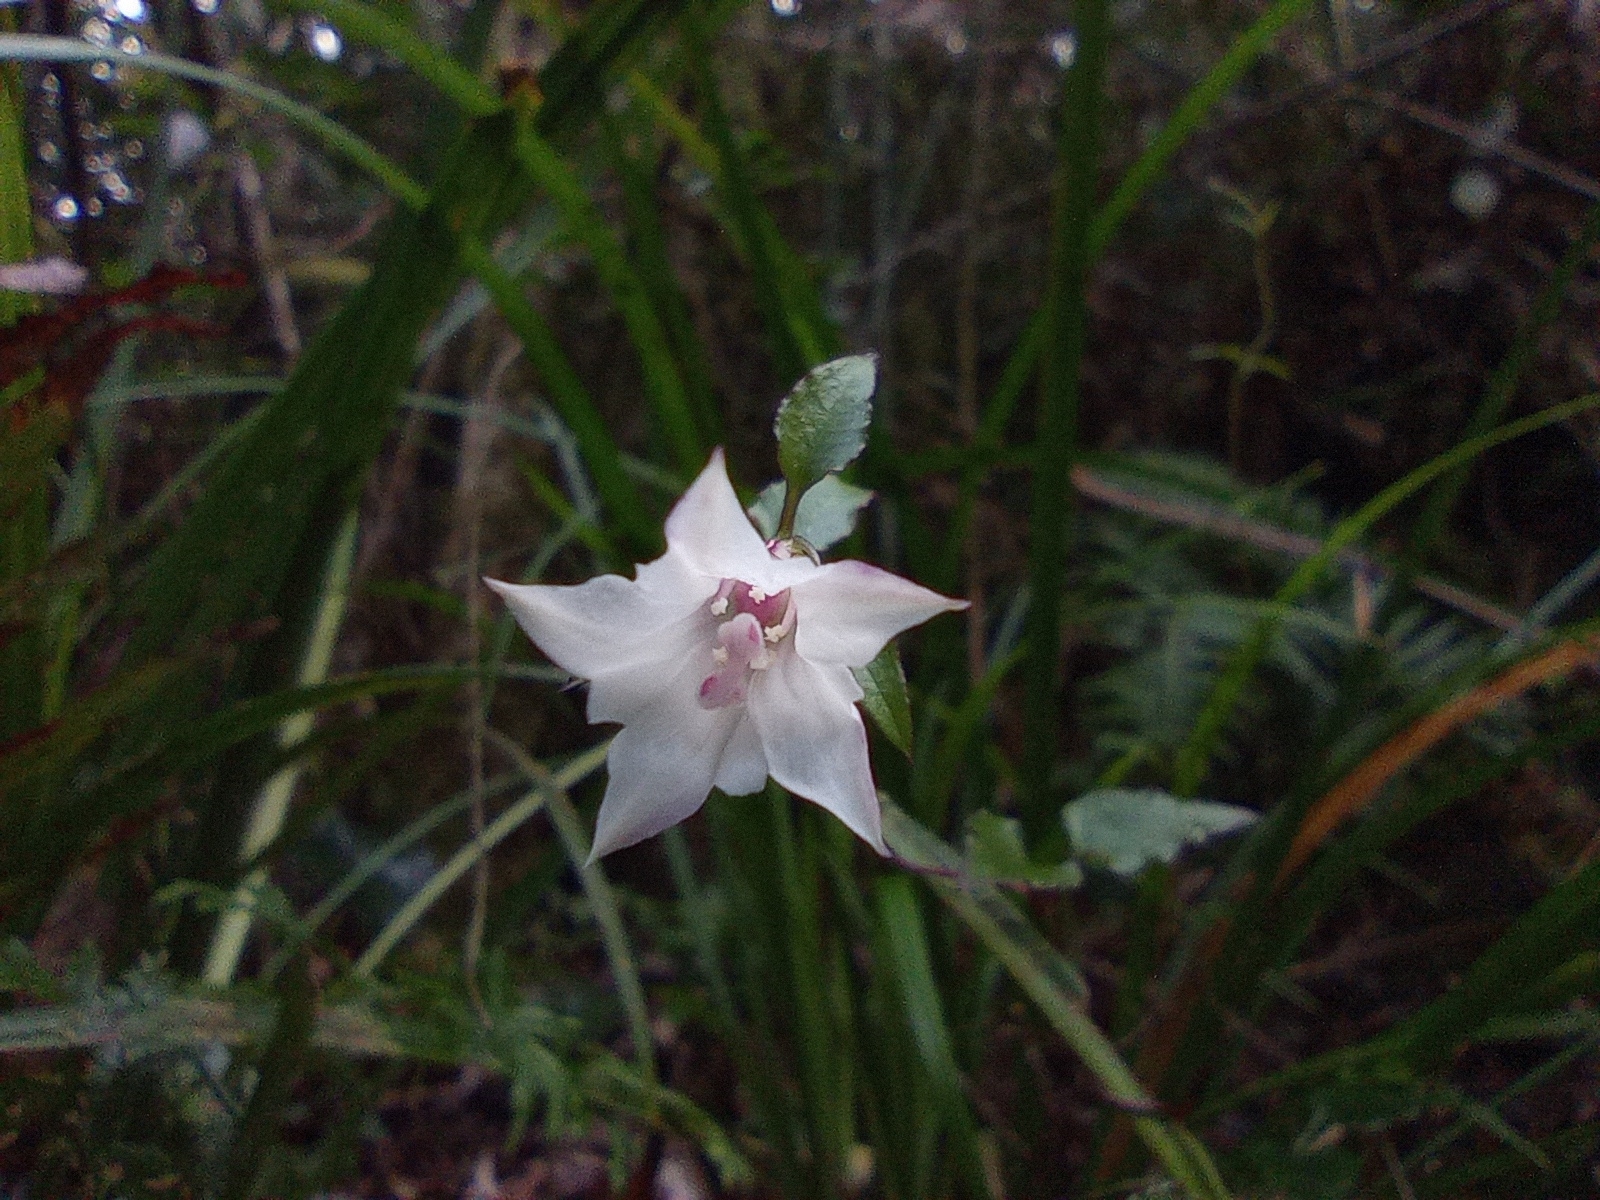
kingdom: Plantae
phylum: Tracheophyta
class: Magnoliopsida
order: Gentianales
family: Gentianaceae
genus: Tripterospermum
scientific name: Tripterospermum luzonense
